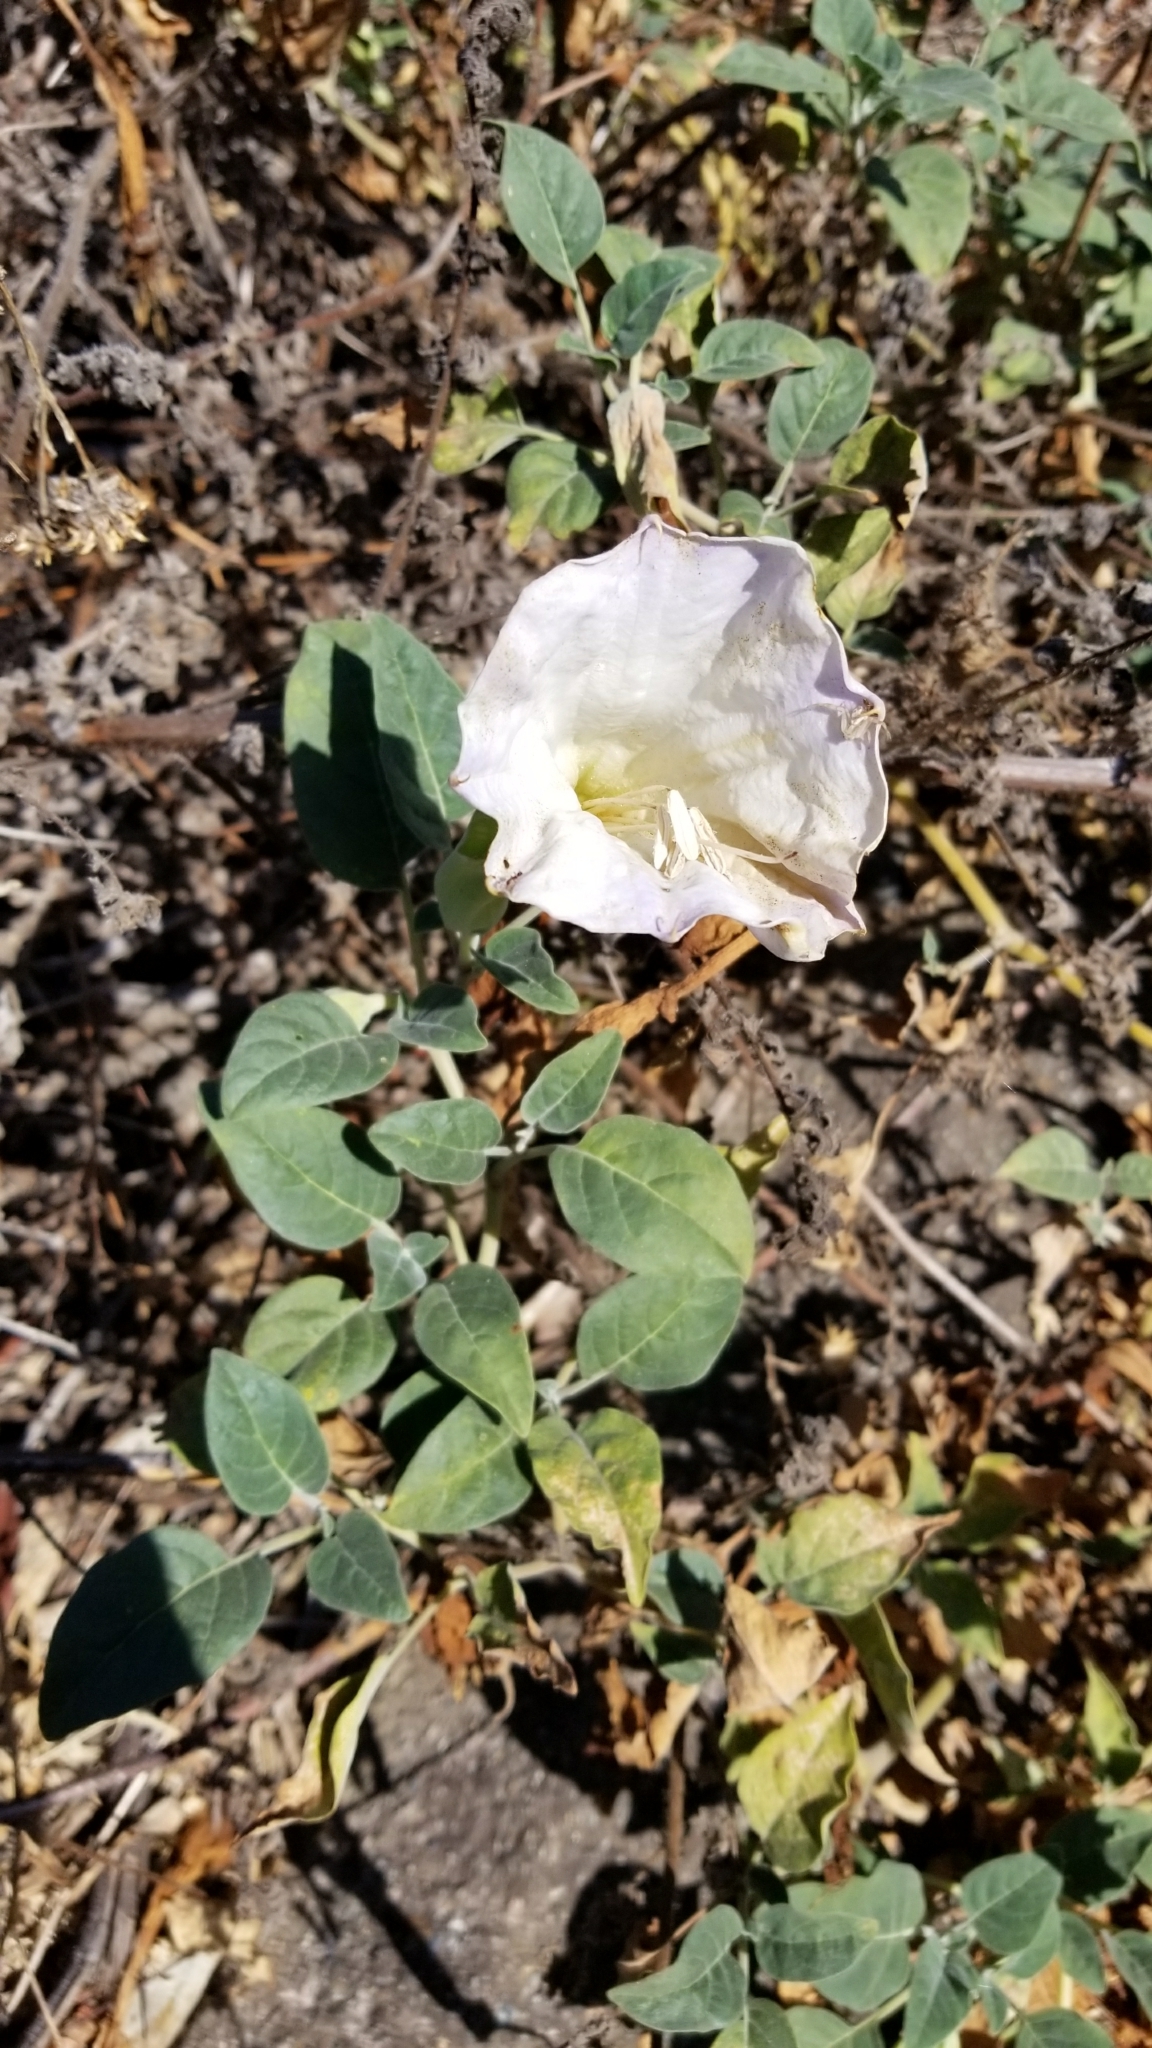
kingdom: Plantae
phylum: Tracheophyta
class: Magnoliopsida
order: Solanales
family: Solanaceae
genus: Datura
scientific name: Datura wrightii
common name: Sacred thorn-apple
